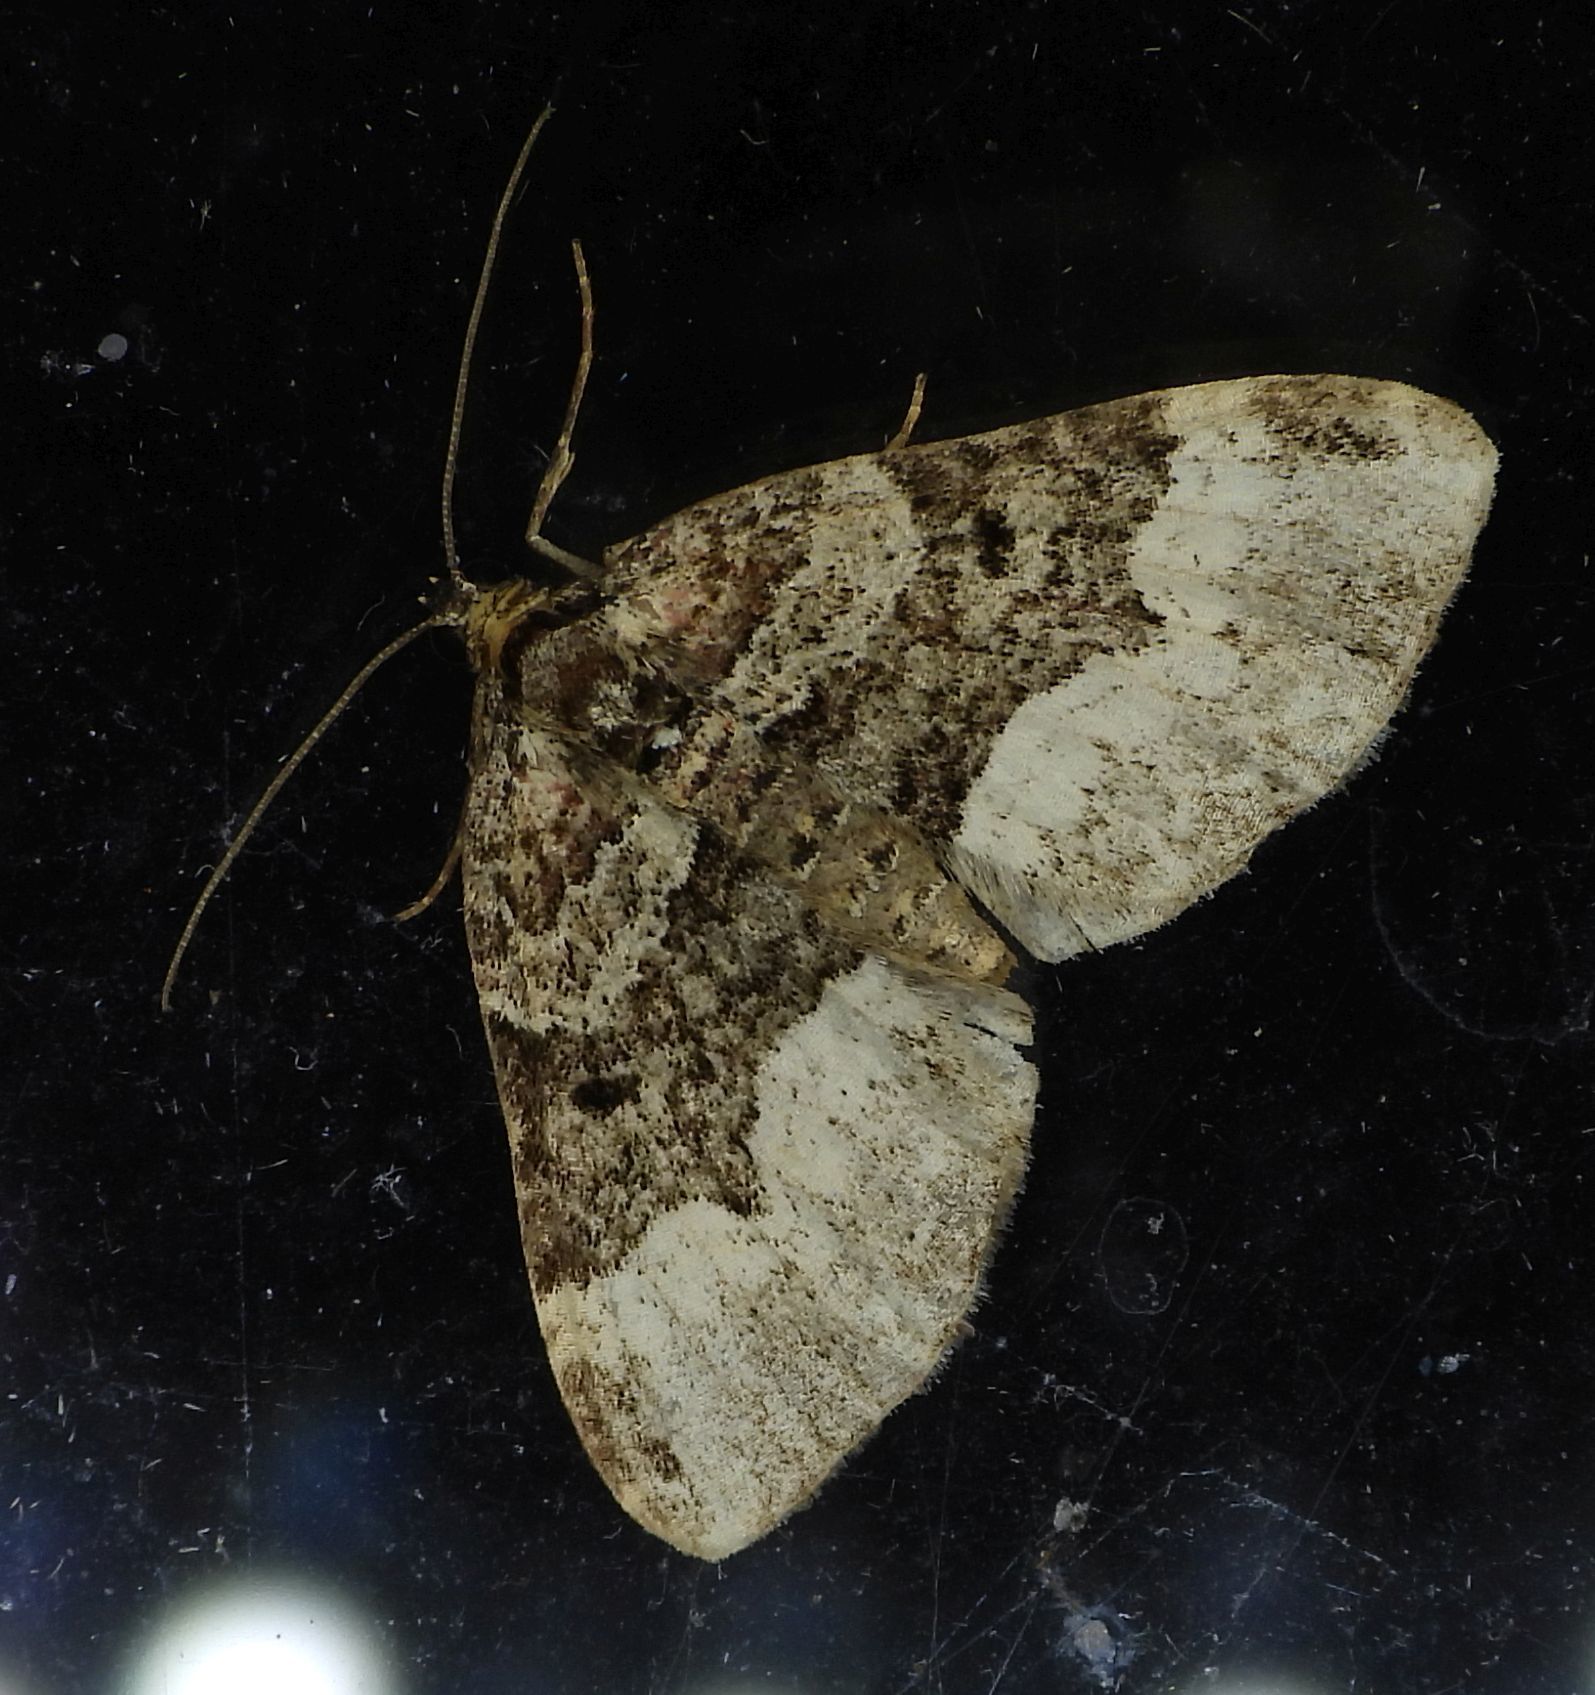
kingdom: Animalia
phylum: Arthropoda
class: Insecta
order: Lepidoptera
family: Geometridae
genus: Euphyia
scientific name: Euphyia intermediata
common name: Sharp-angled carpet
